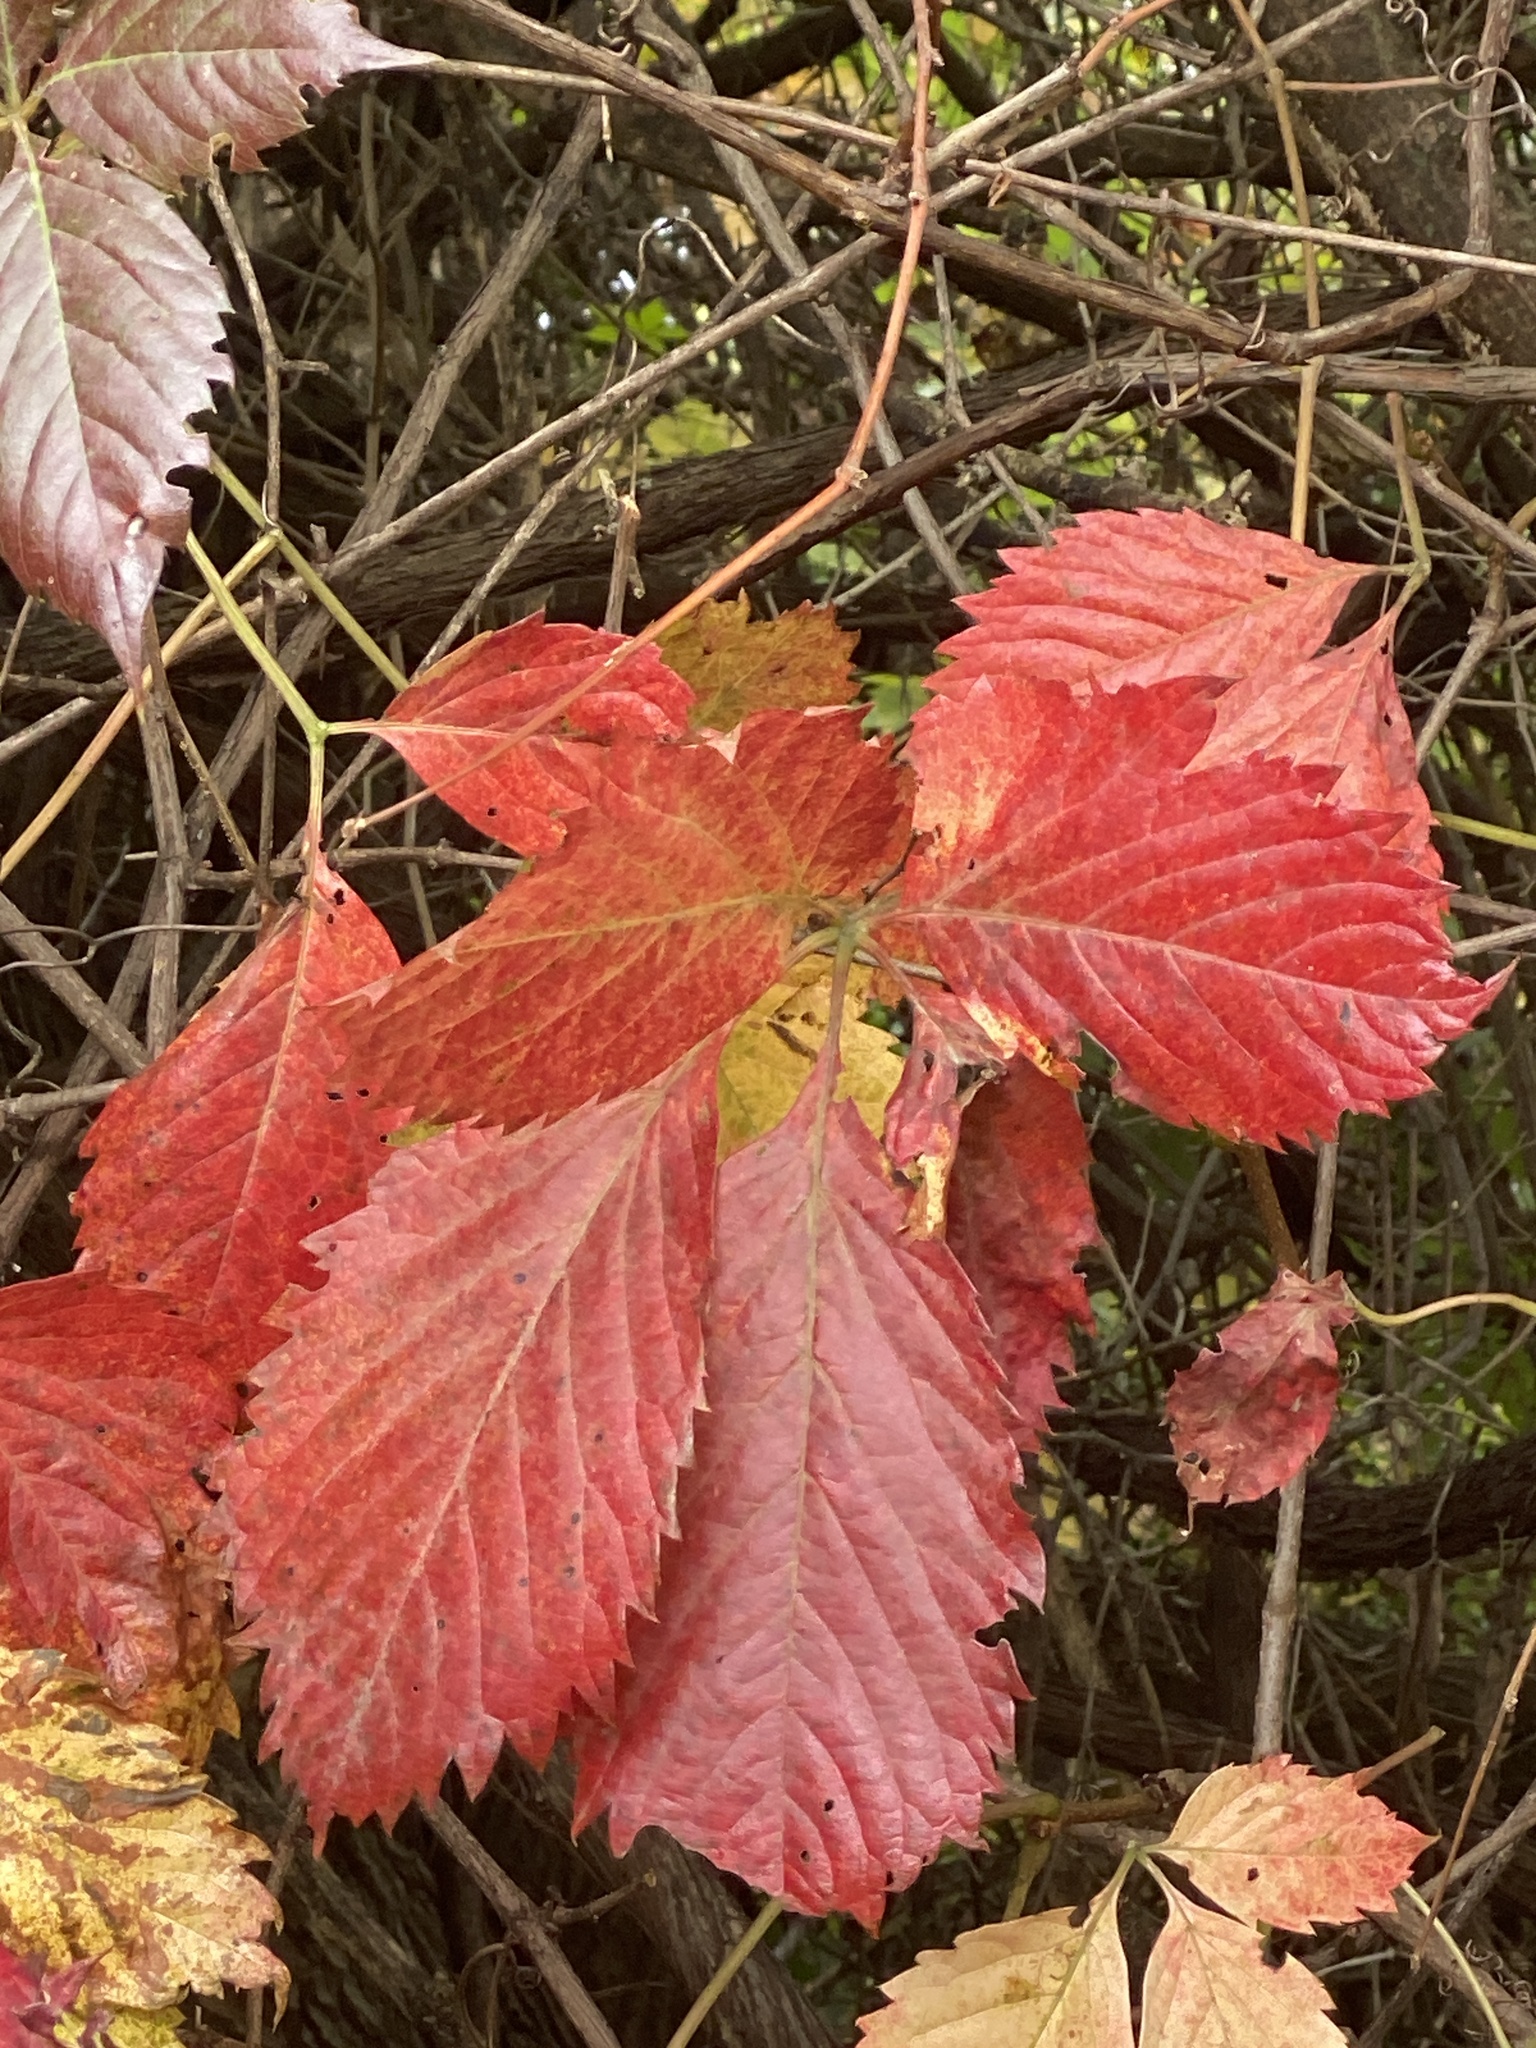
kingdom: Plantae
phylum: Tracheophyta
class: Magnoliopsida
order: Vitales
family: Vitaceae
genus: Parthenocissus
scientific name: Parthenocissus inserta
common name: False virginia-creeper
